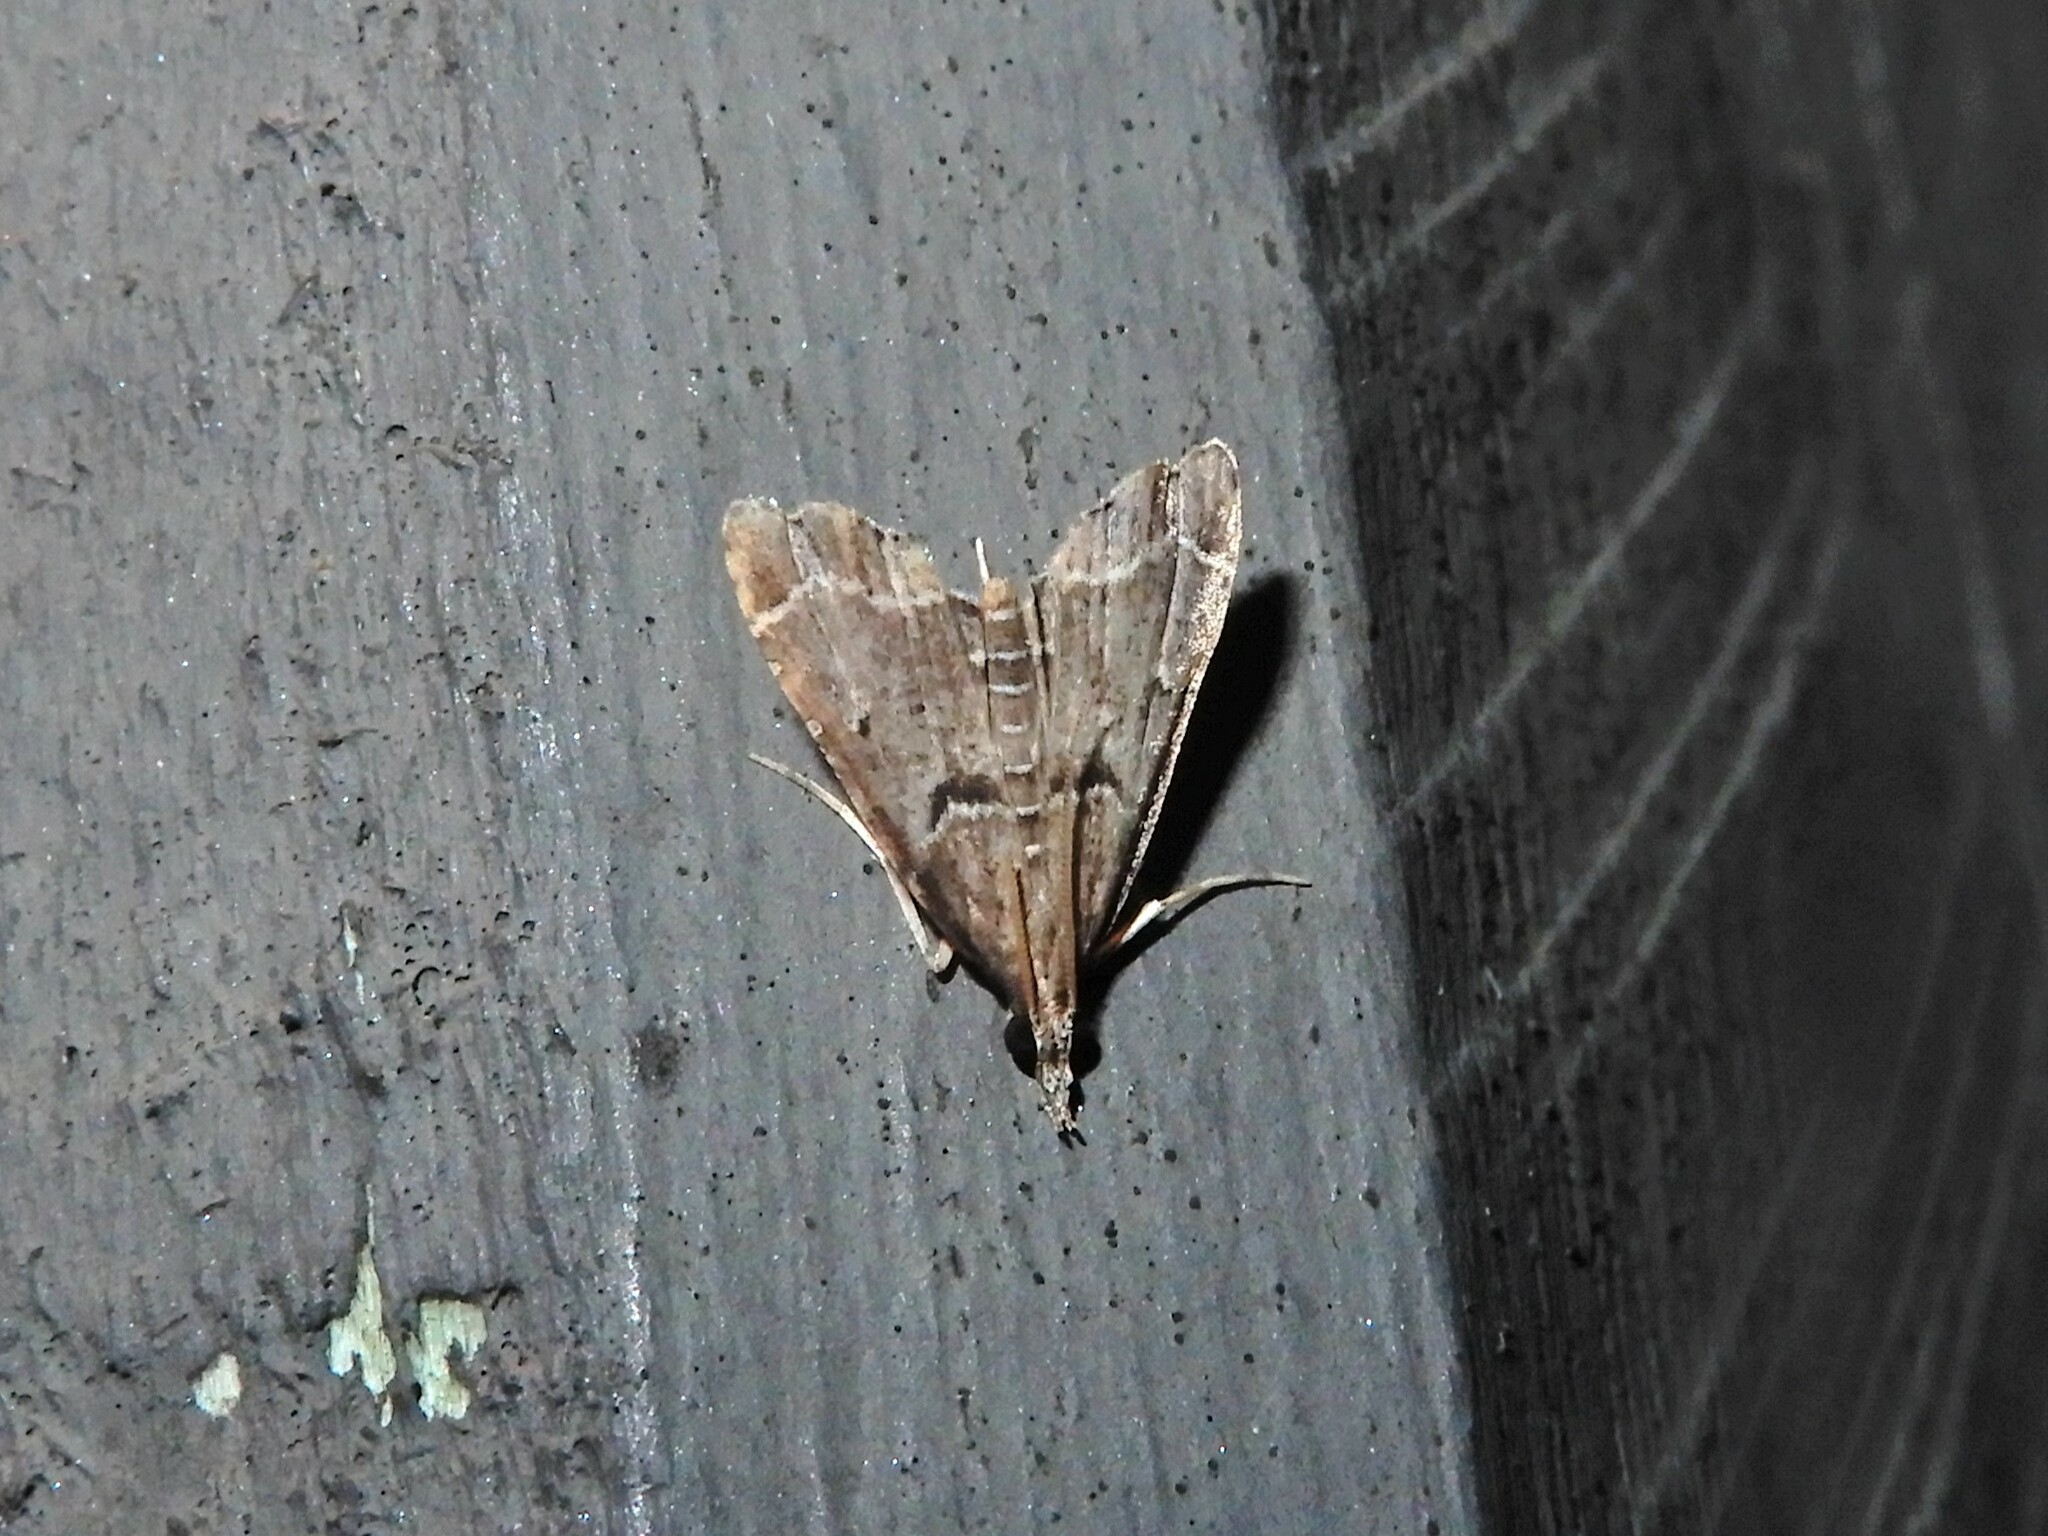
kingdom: Animalia
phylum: Arthropoda
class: Insecta
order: Lepidoptera
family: Crambidae
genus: Diplopseustis
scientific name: Diplopseustis perieresalis
